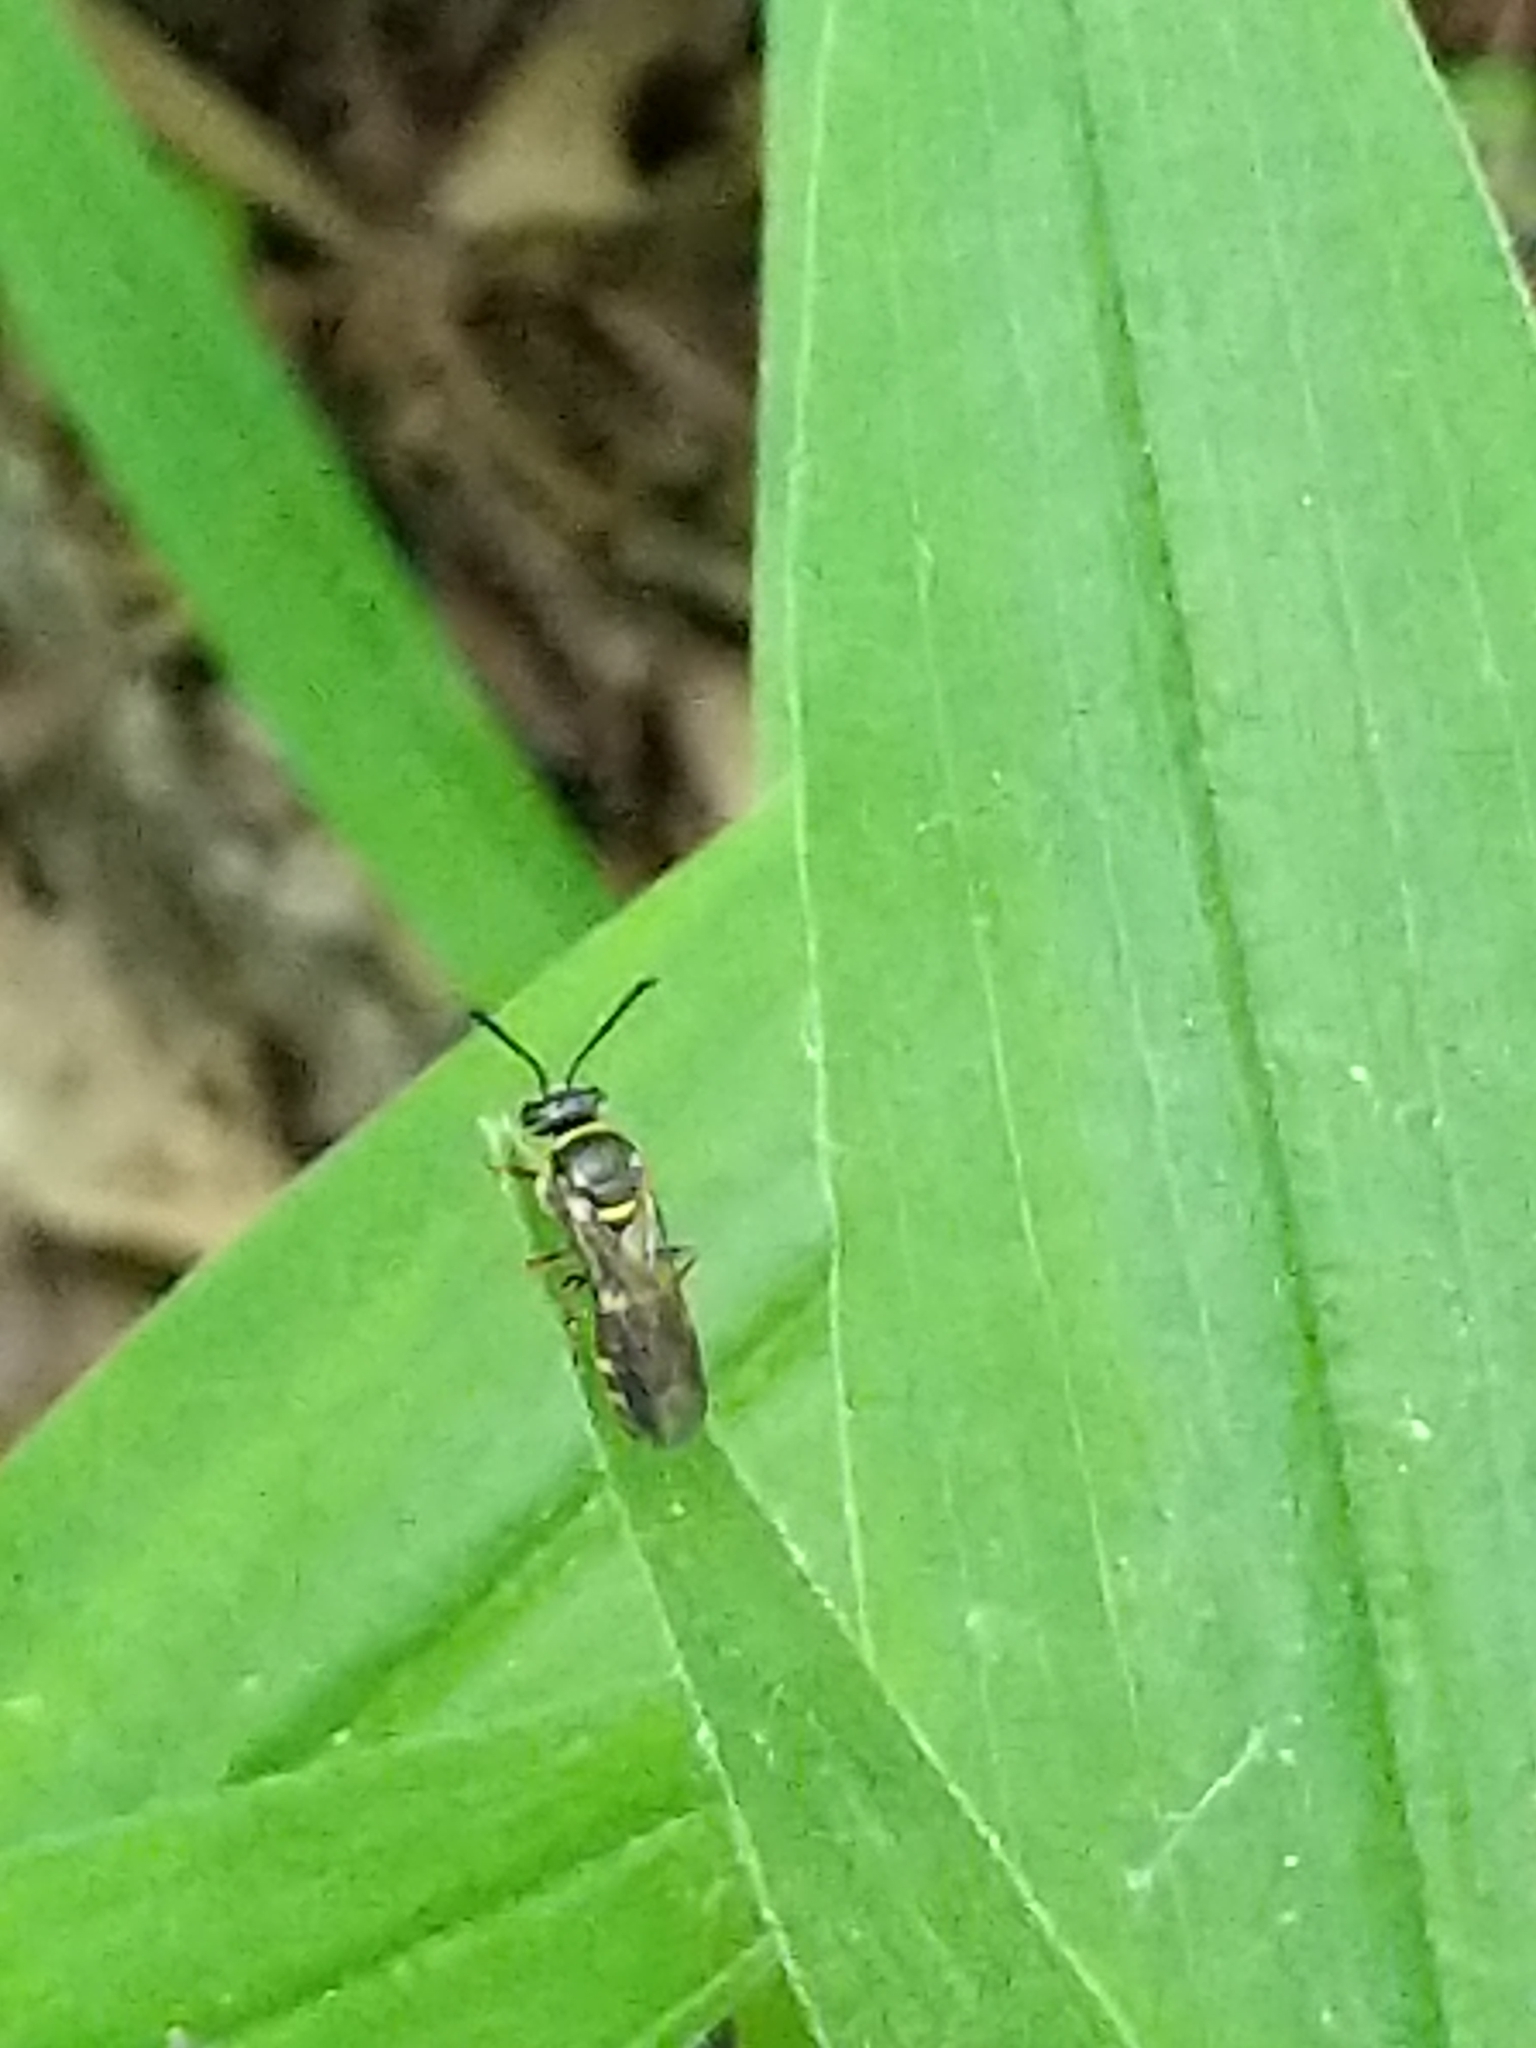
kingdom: Animalia
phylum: Arthropoda
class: Insecta
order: Hymenoptera
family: Crabronidae
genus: Argogorytes
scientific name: Argogorytes nigrifrons
